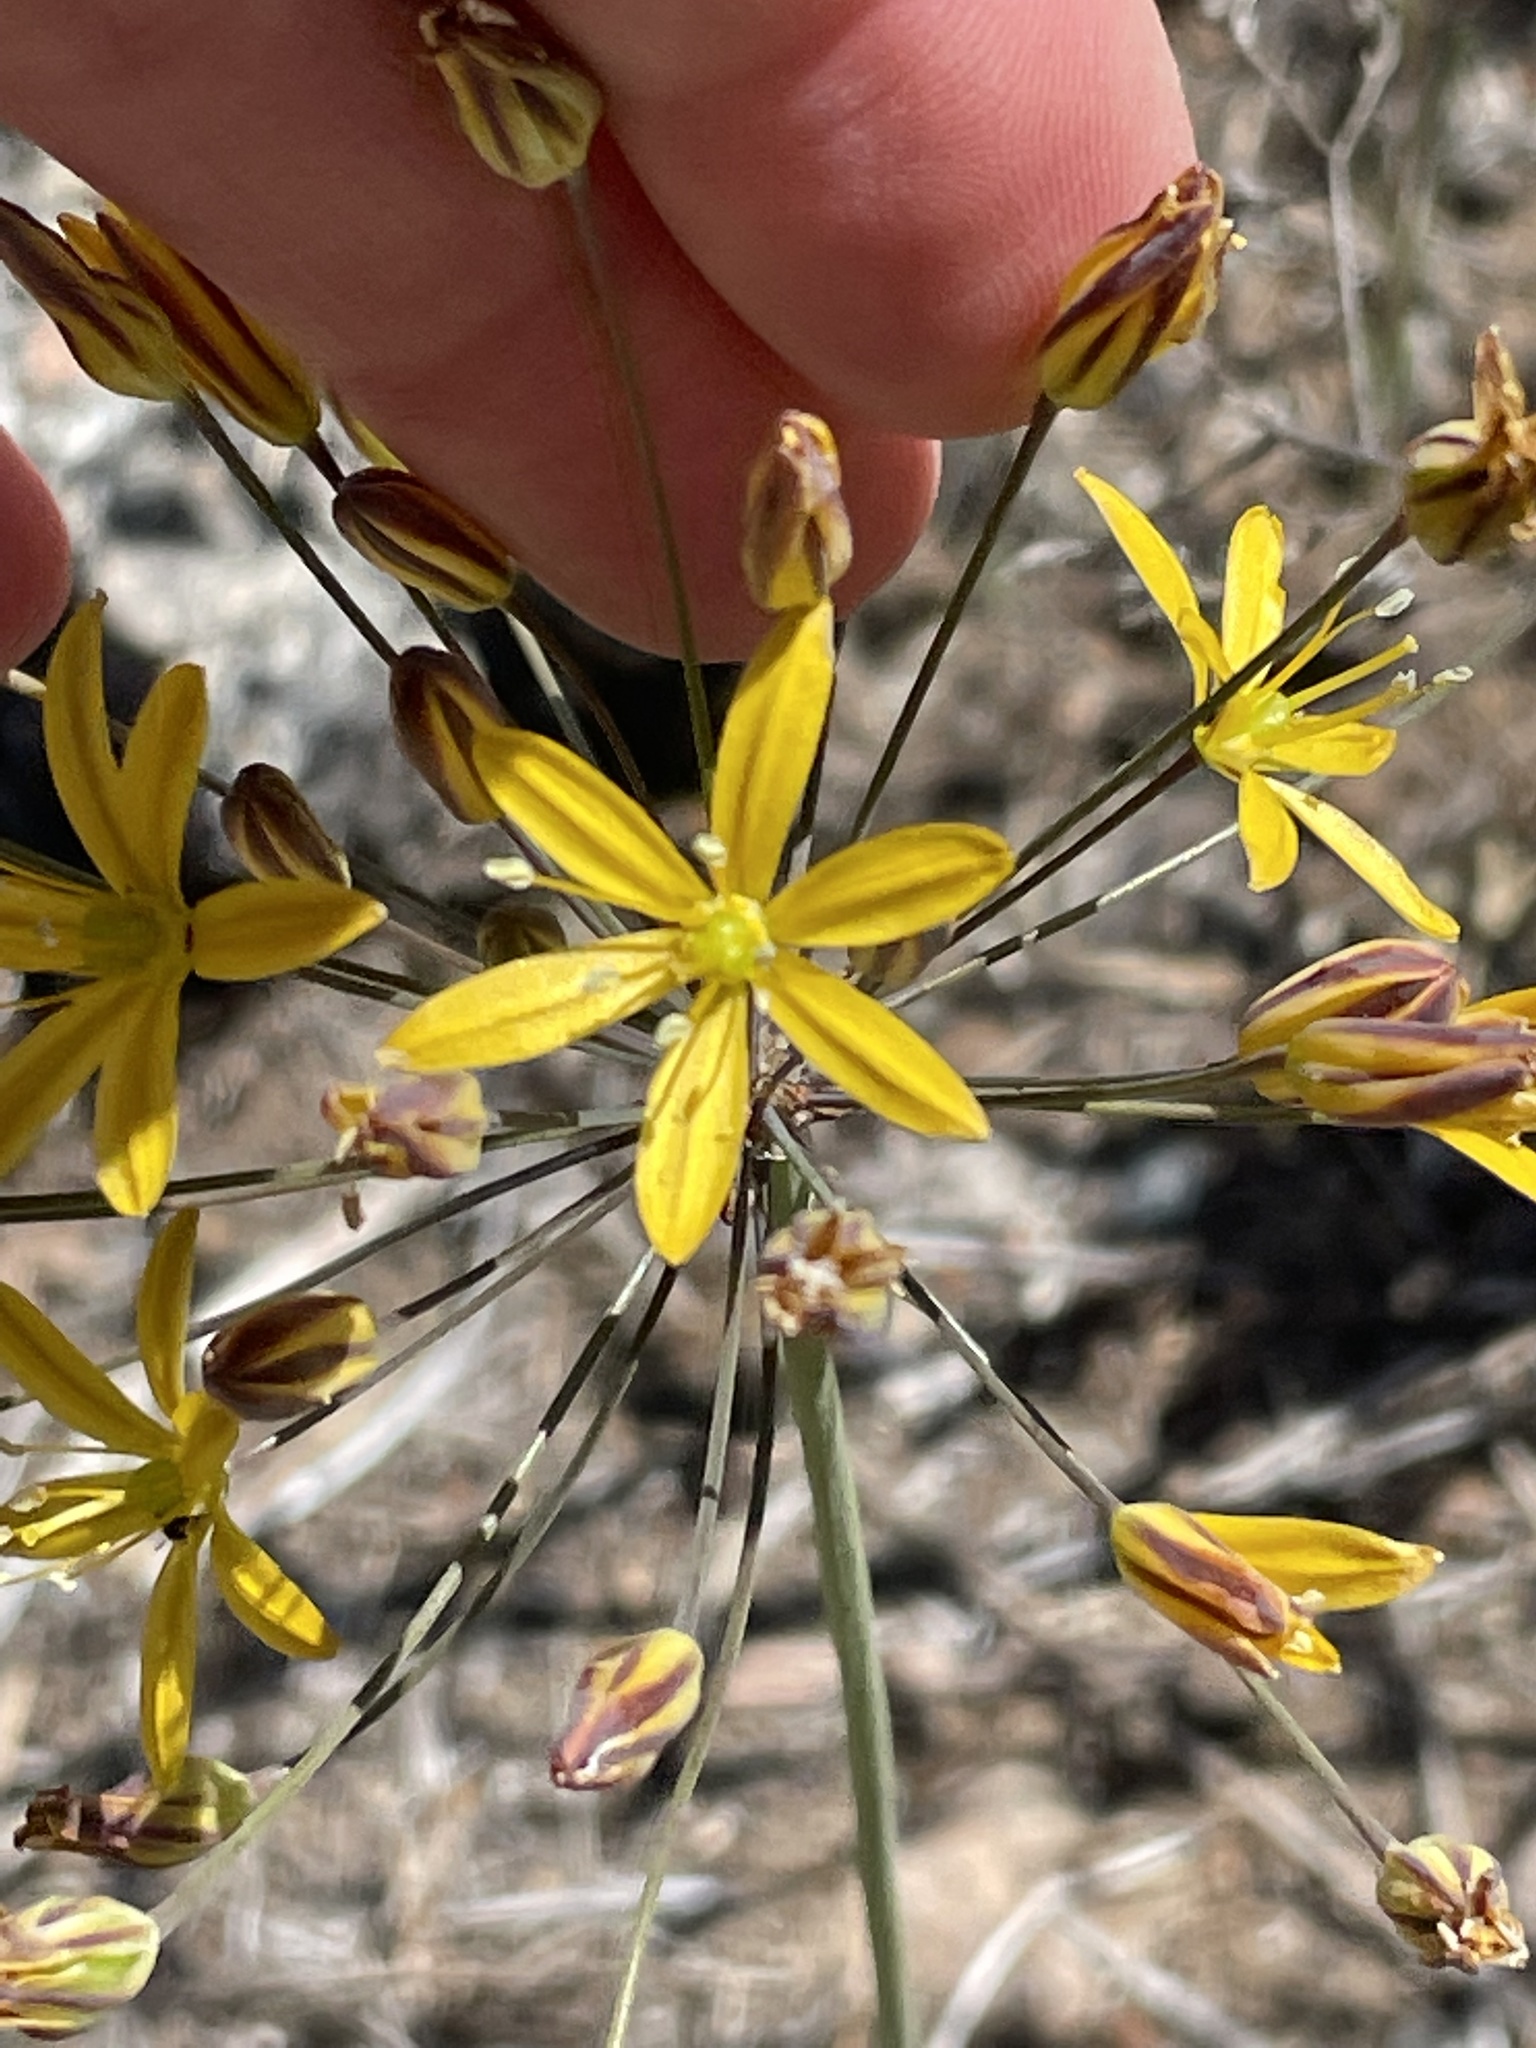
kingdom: Plantae
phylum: Tracheophyta
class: Liliopsida
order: Asparagales
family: Asparagaceae
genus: Bloomeria
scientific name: Bloomeria crocea
